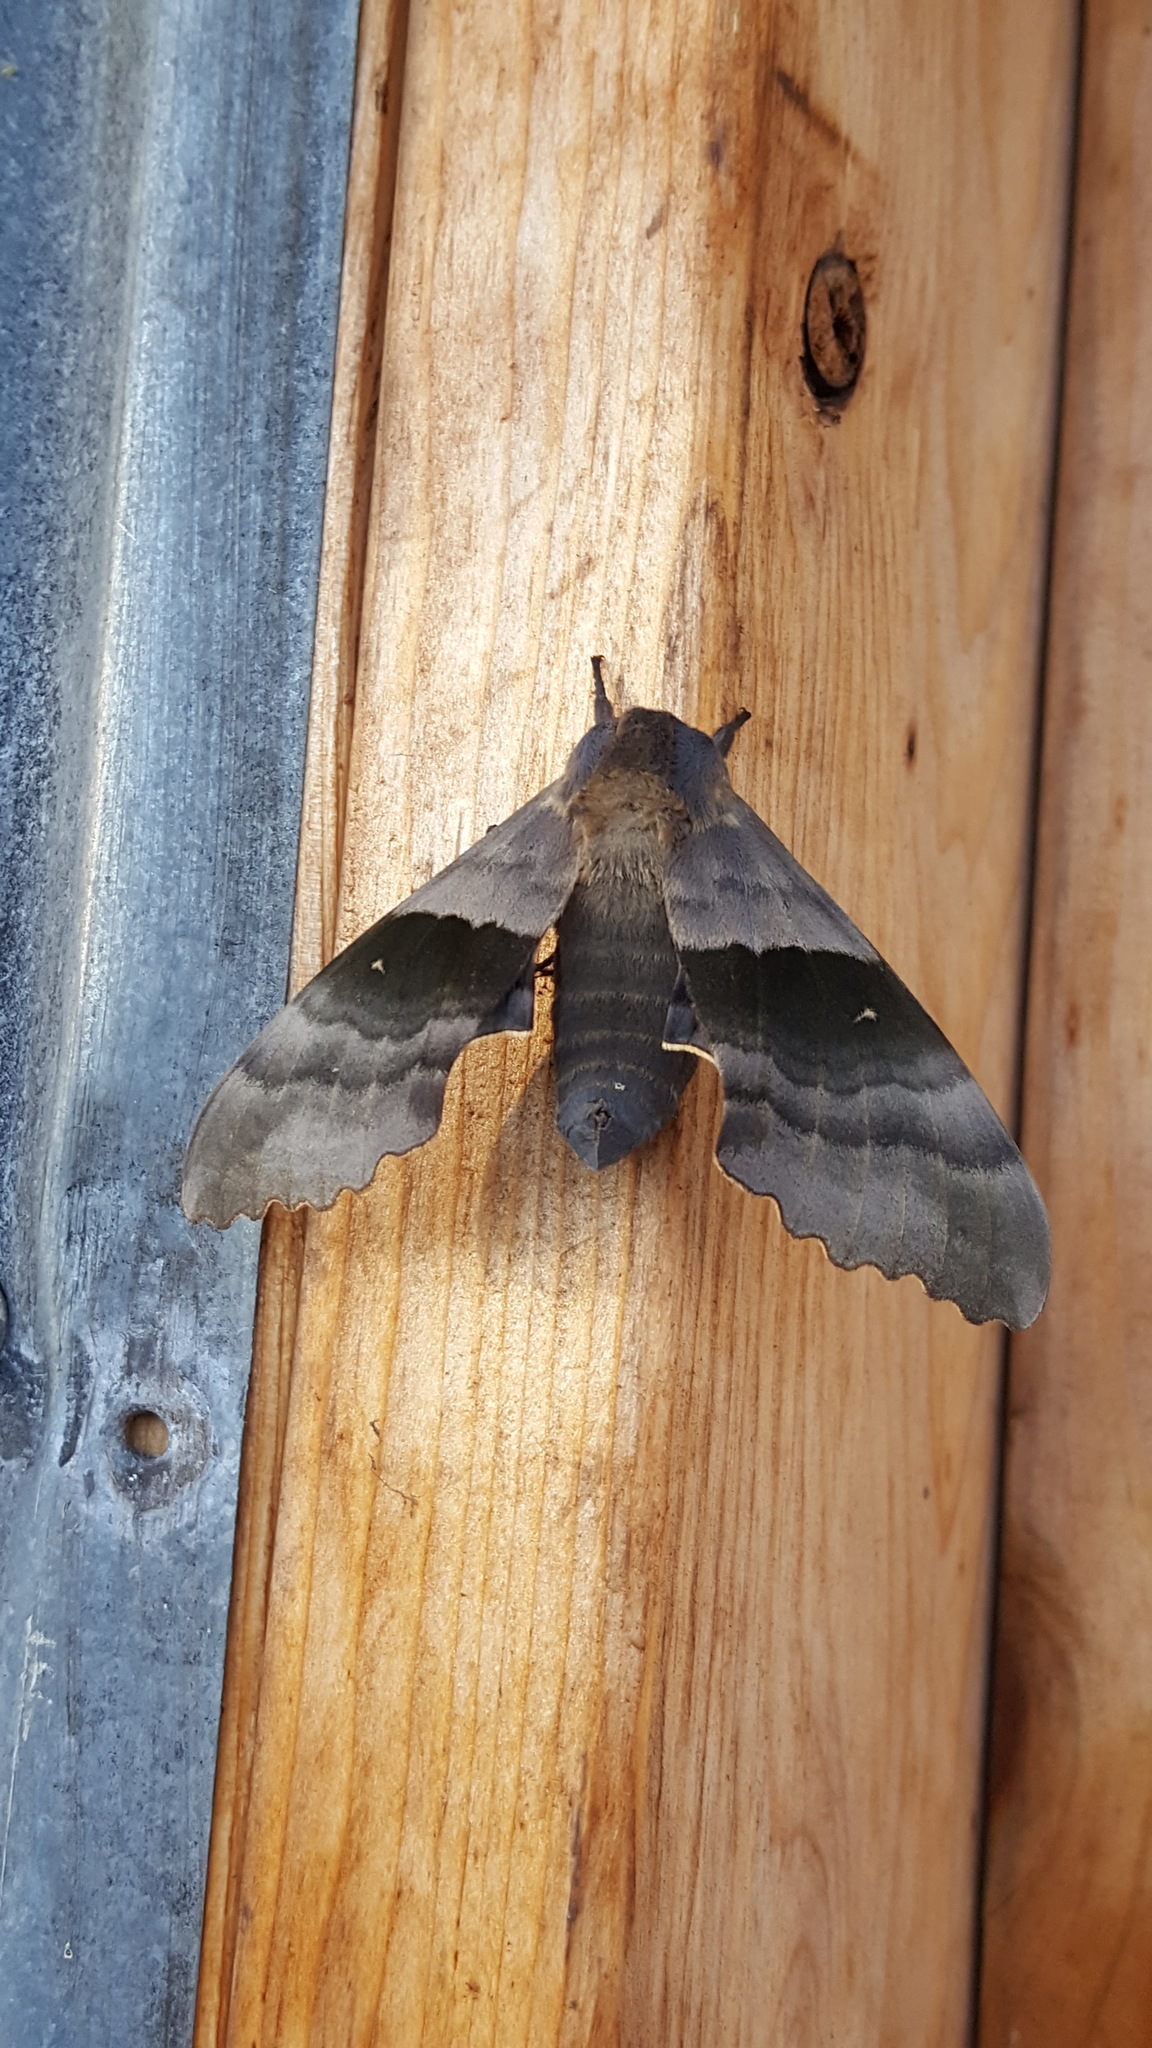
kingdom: Animalia
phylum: Arthropoda
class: Insecta
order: Lepidoptera
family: Sphingidae
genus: Pachysphinx
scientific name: Pachysphinx modesta
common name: Big poplar sphinx
